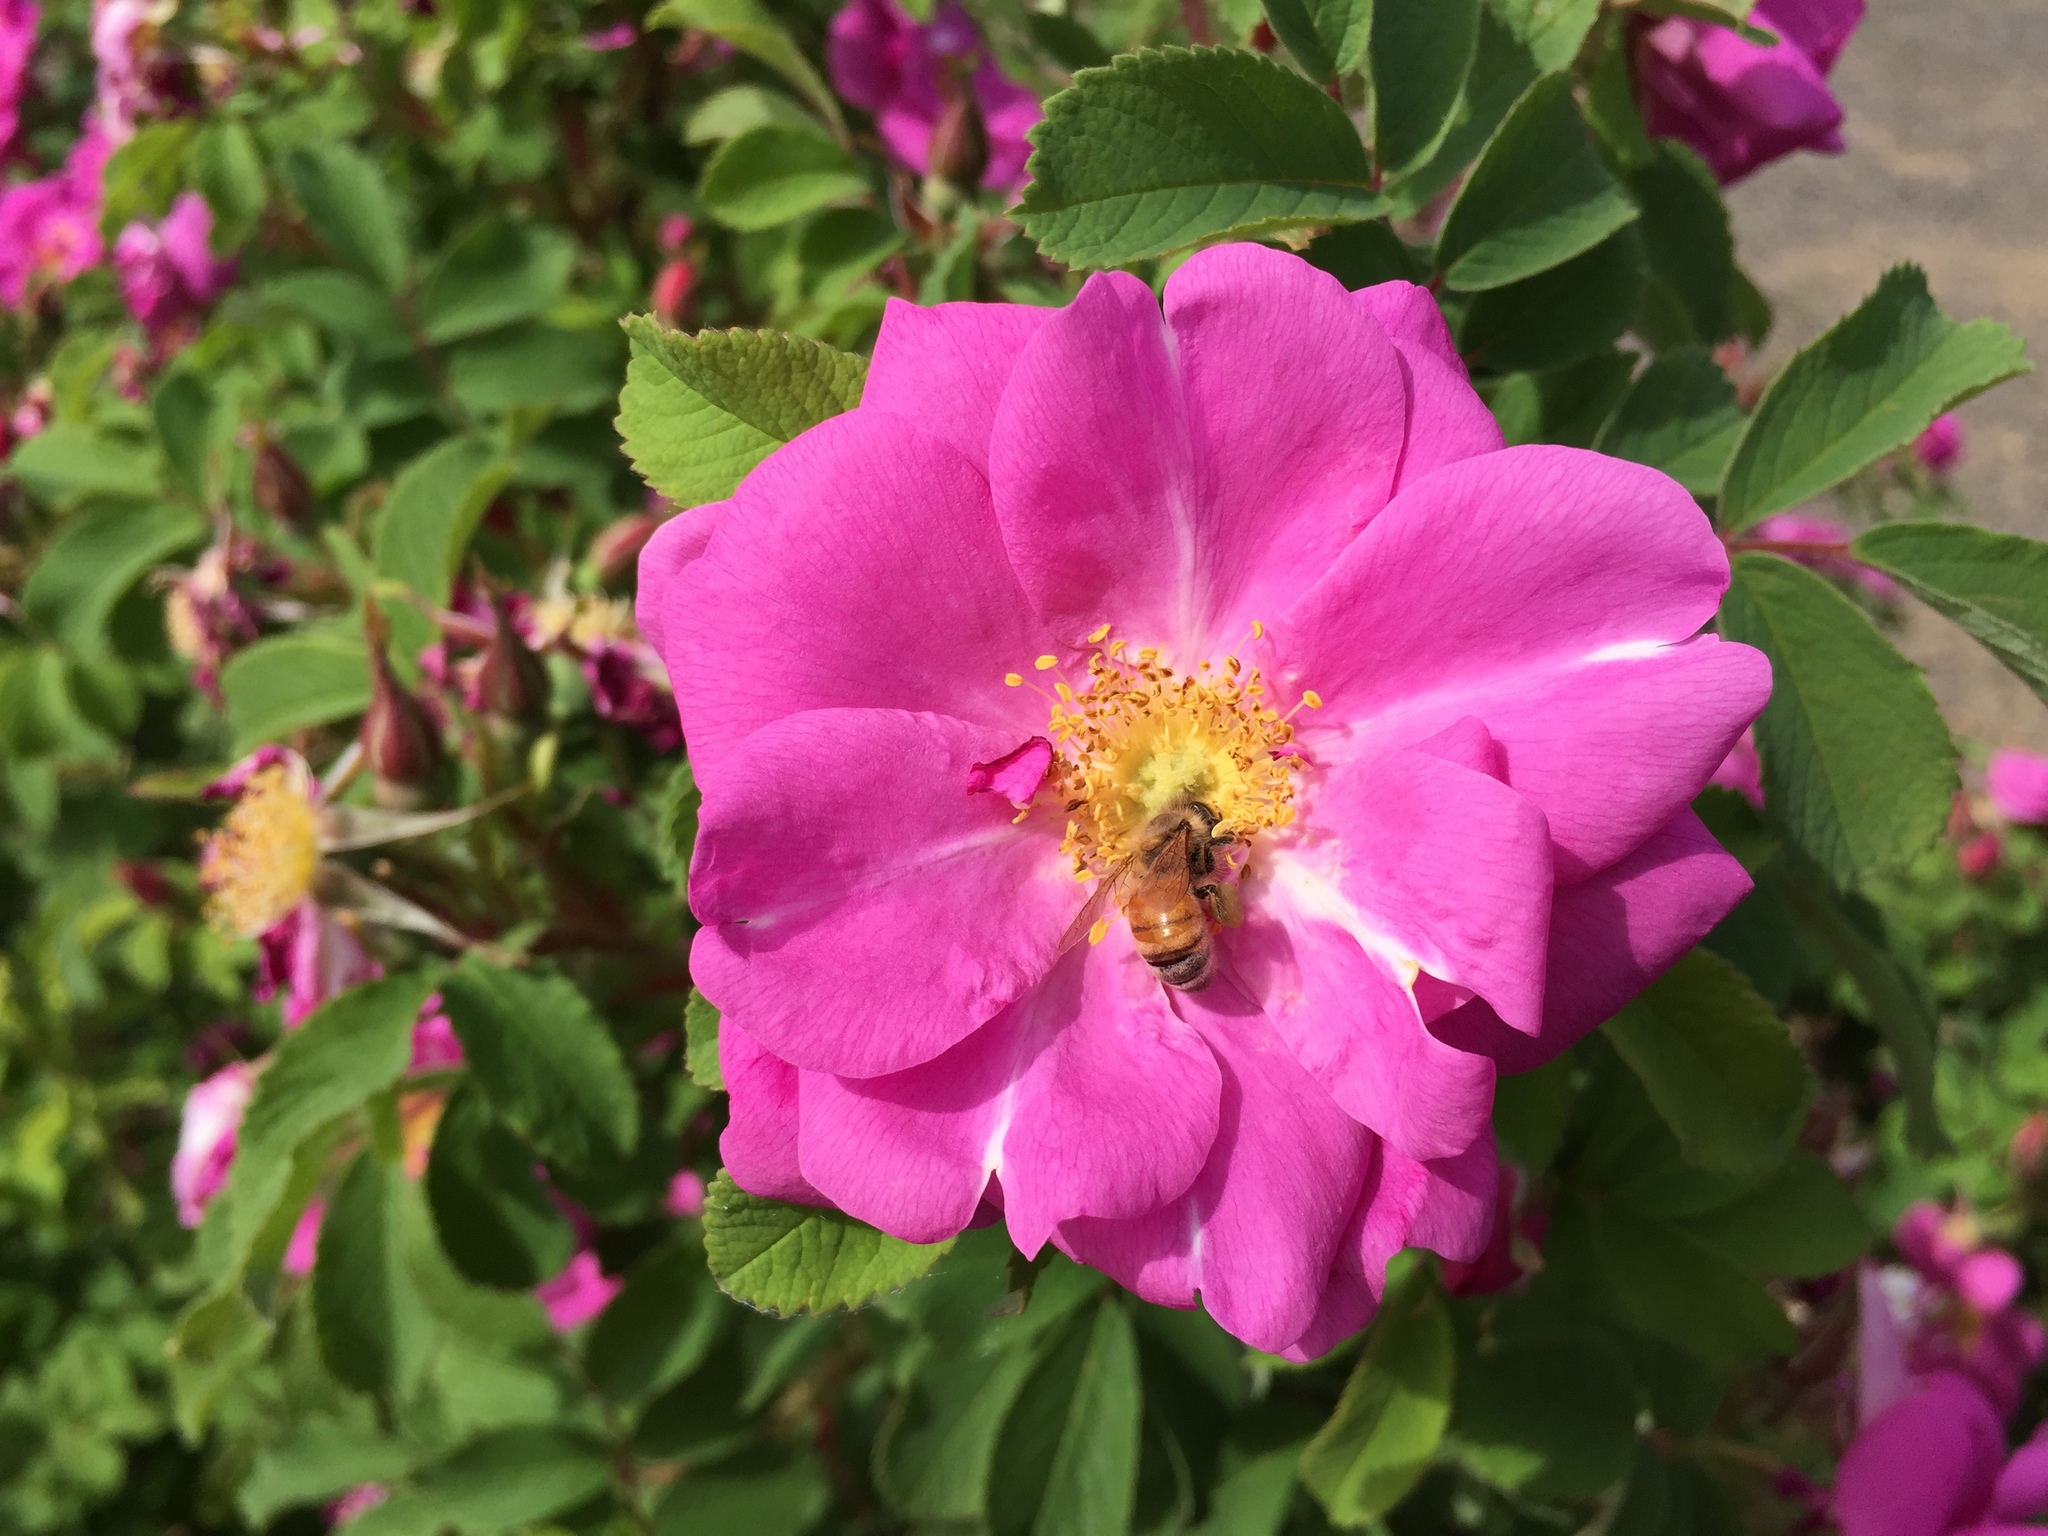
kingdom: Animalia
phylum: Arthropoda
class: Insecta
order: Hymenoptera
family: Apidae
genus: Apis
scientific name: Apis mellifera
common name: Honey bee
